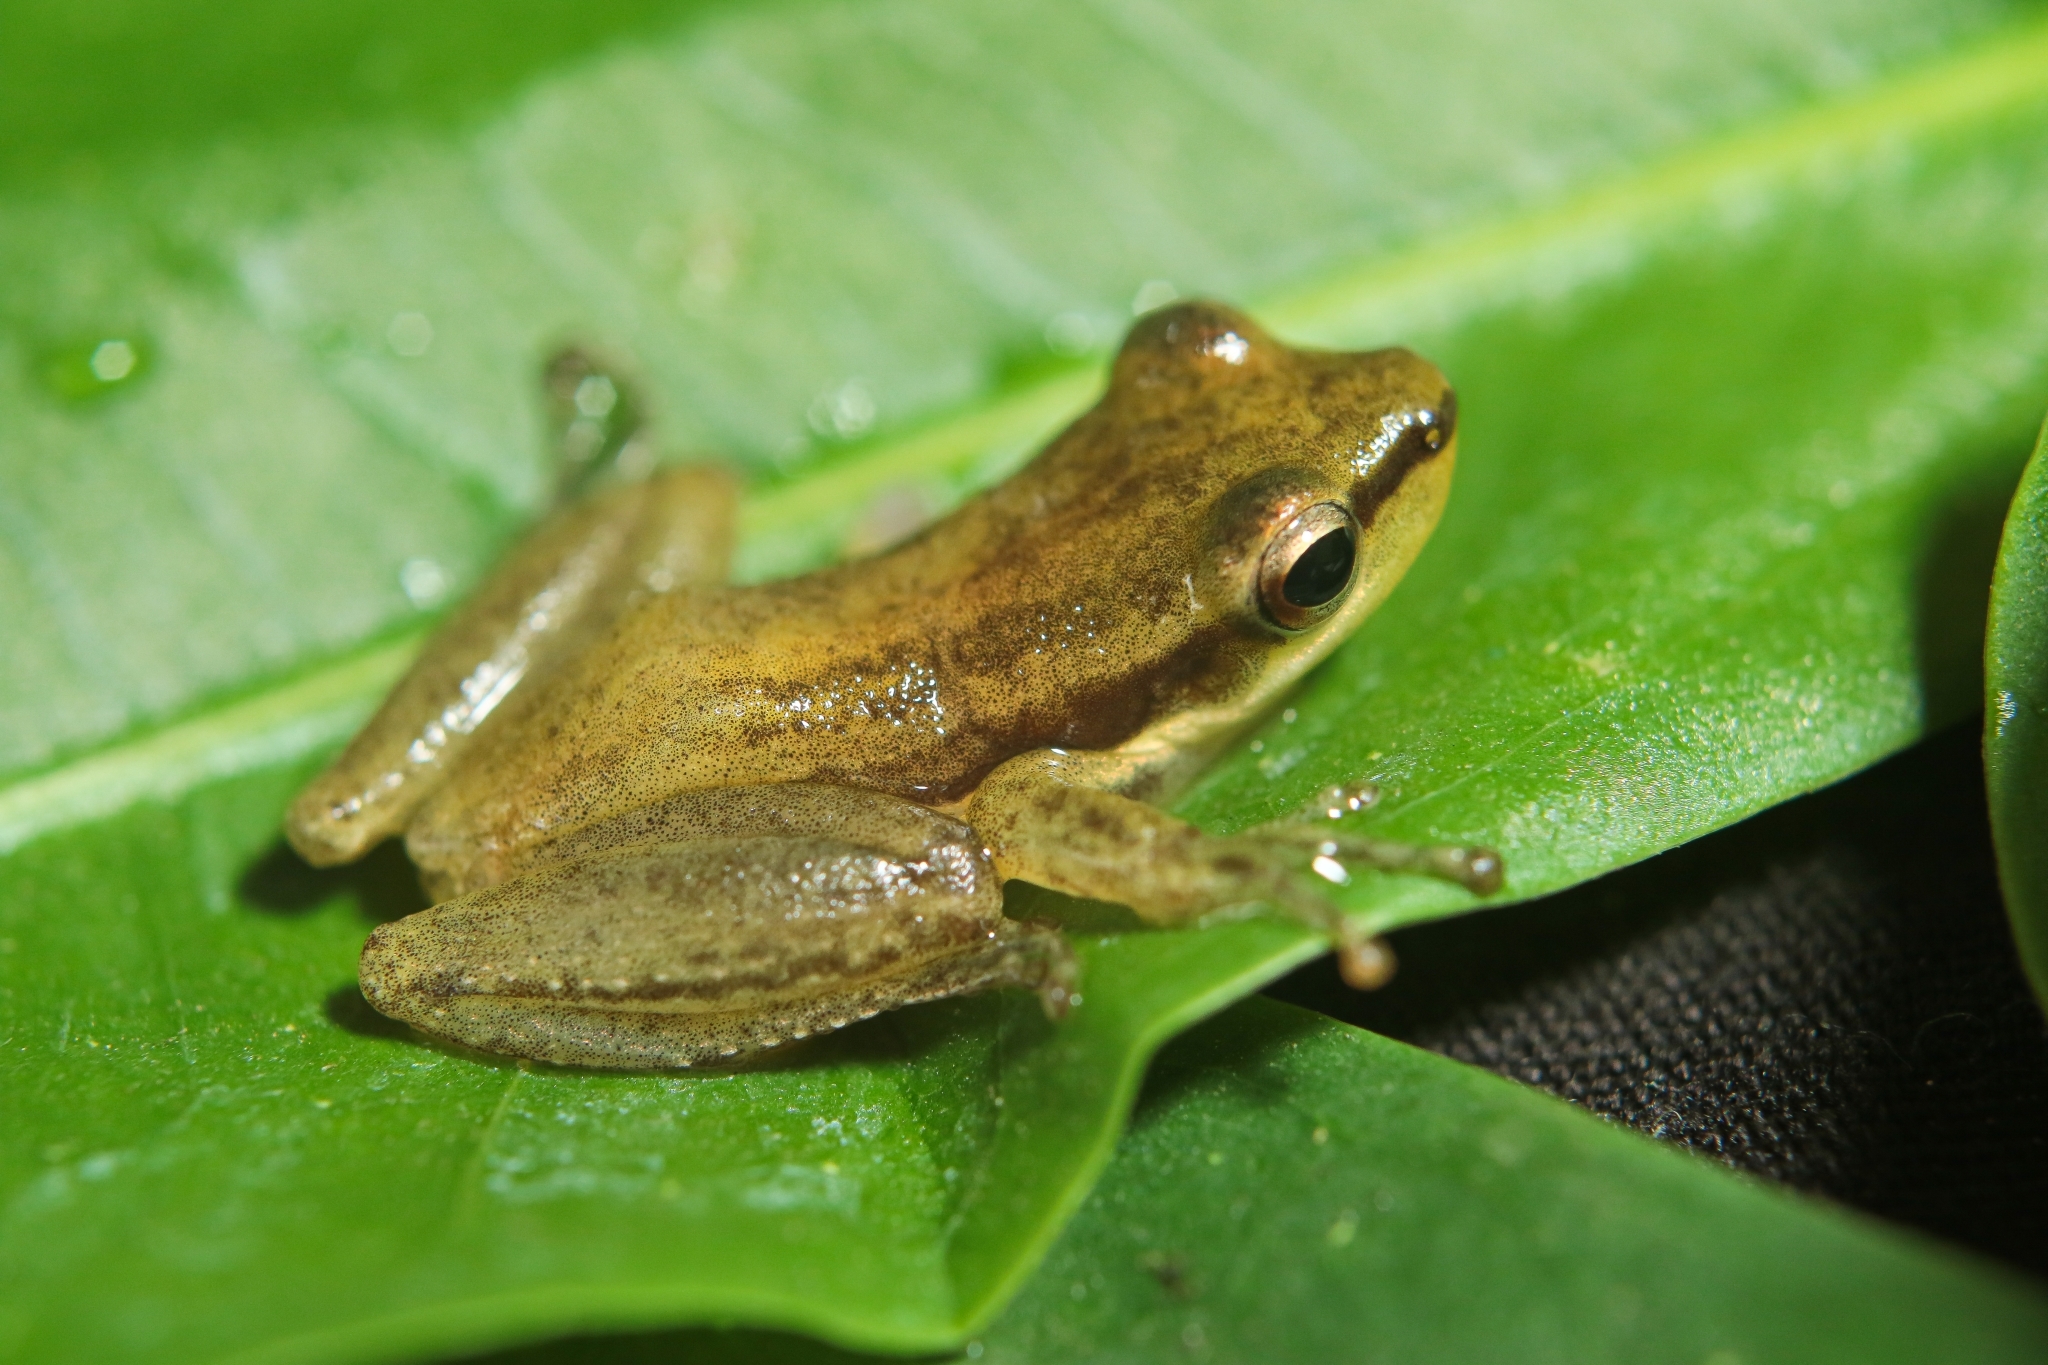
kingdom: Animalia
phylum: Chordata
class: Amphibia
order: Anura
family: Hylidae
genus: Scarthyla
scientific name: Scarthyla vigilans
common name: Maracaibo basin treefrog
